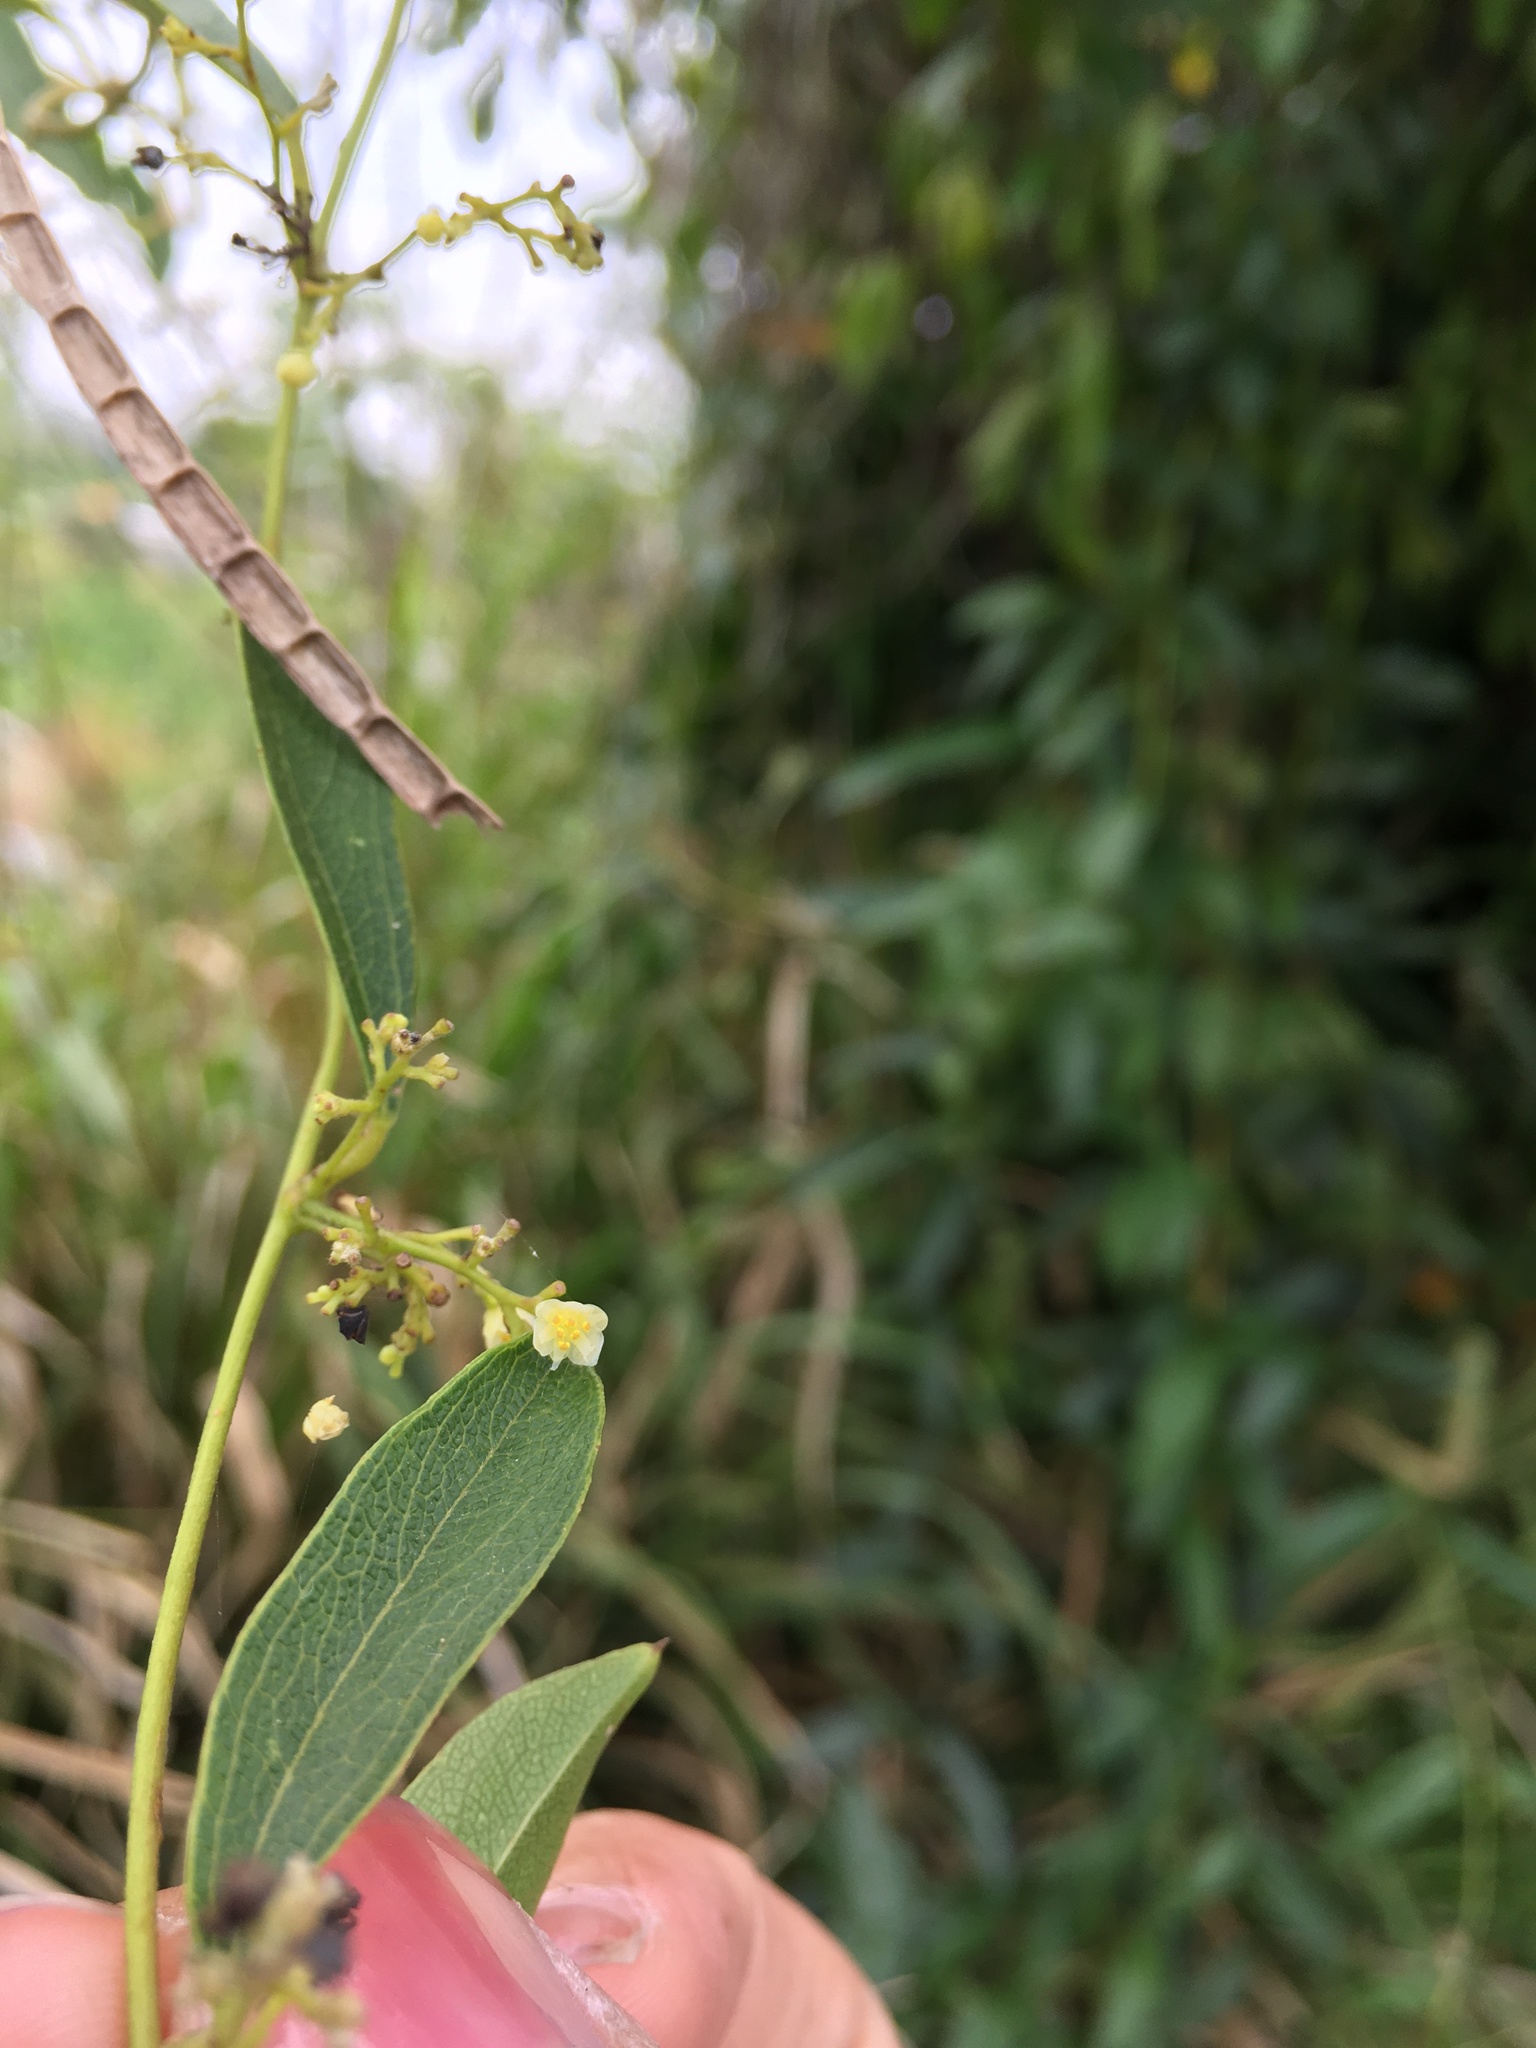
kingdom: Plantae
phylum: Tracheophyta
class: Magnoliopsida
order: Ranunculales
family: Menispermaceae
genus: Cocculus
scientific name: Cocculus orbiculatus
